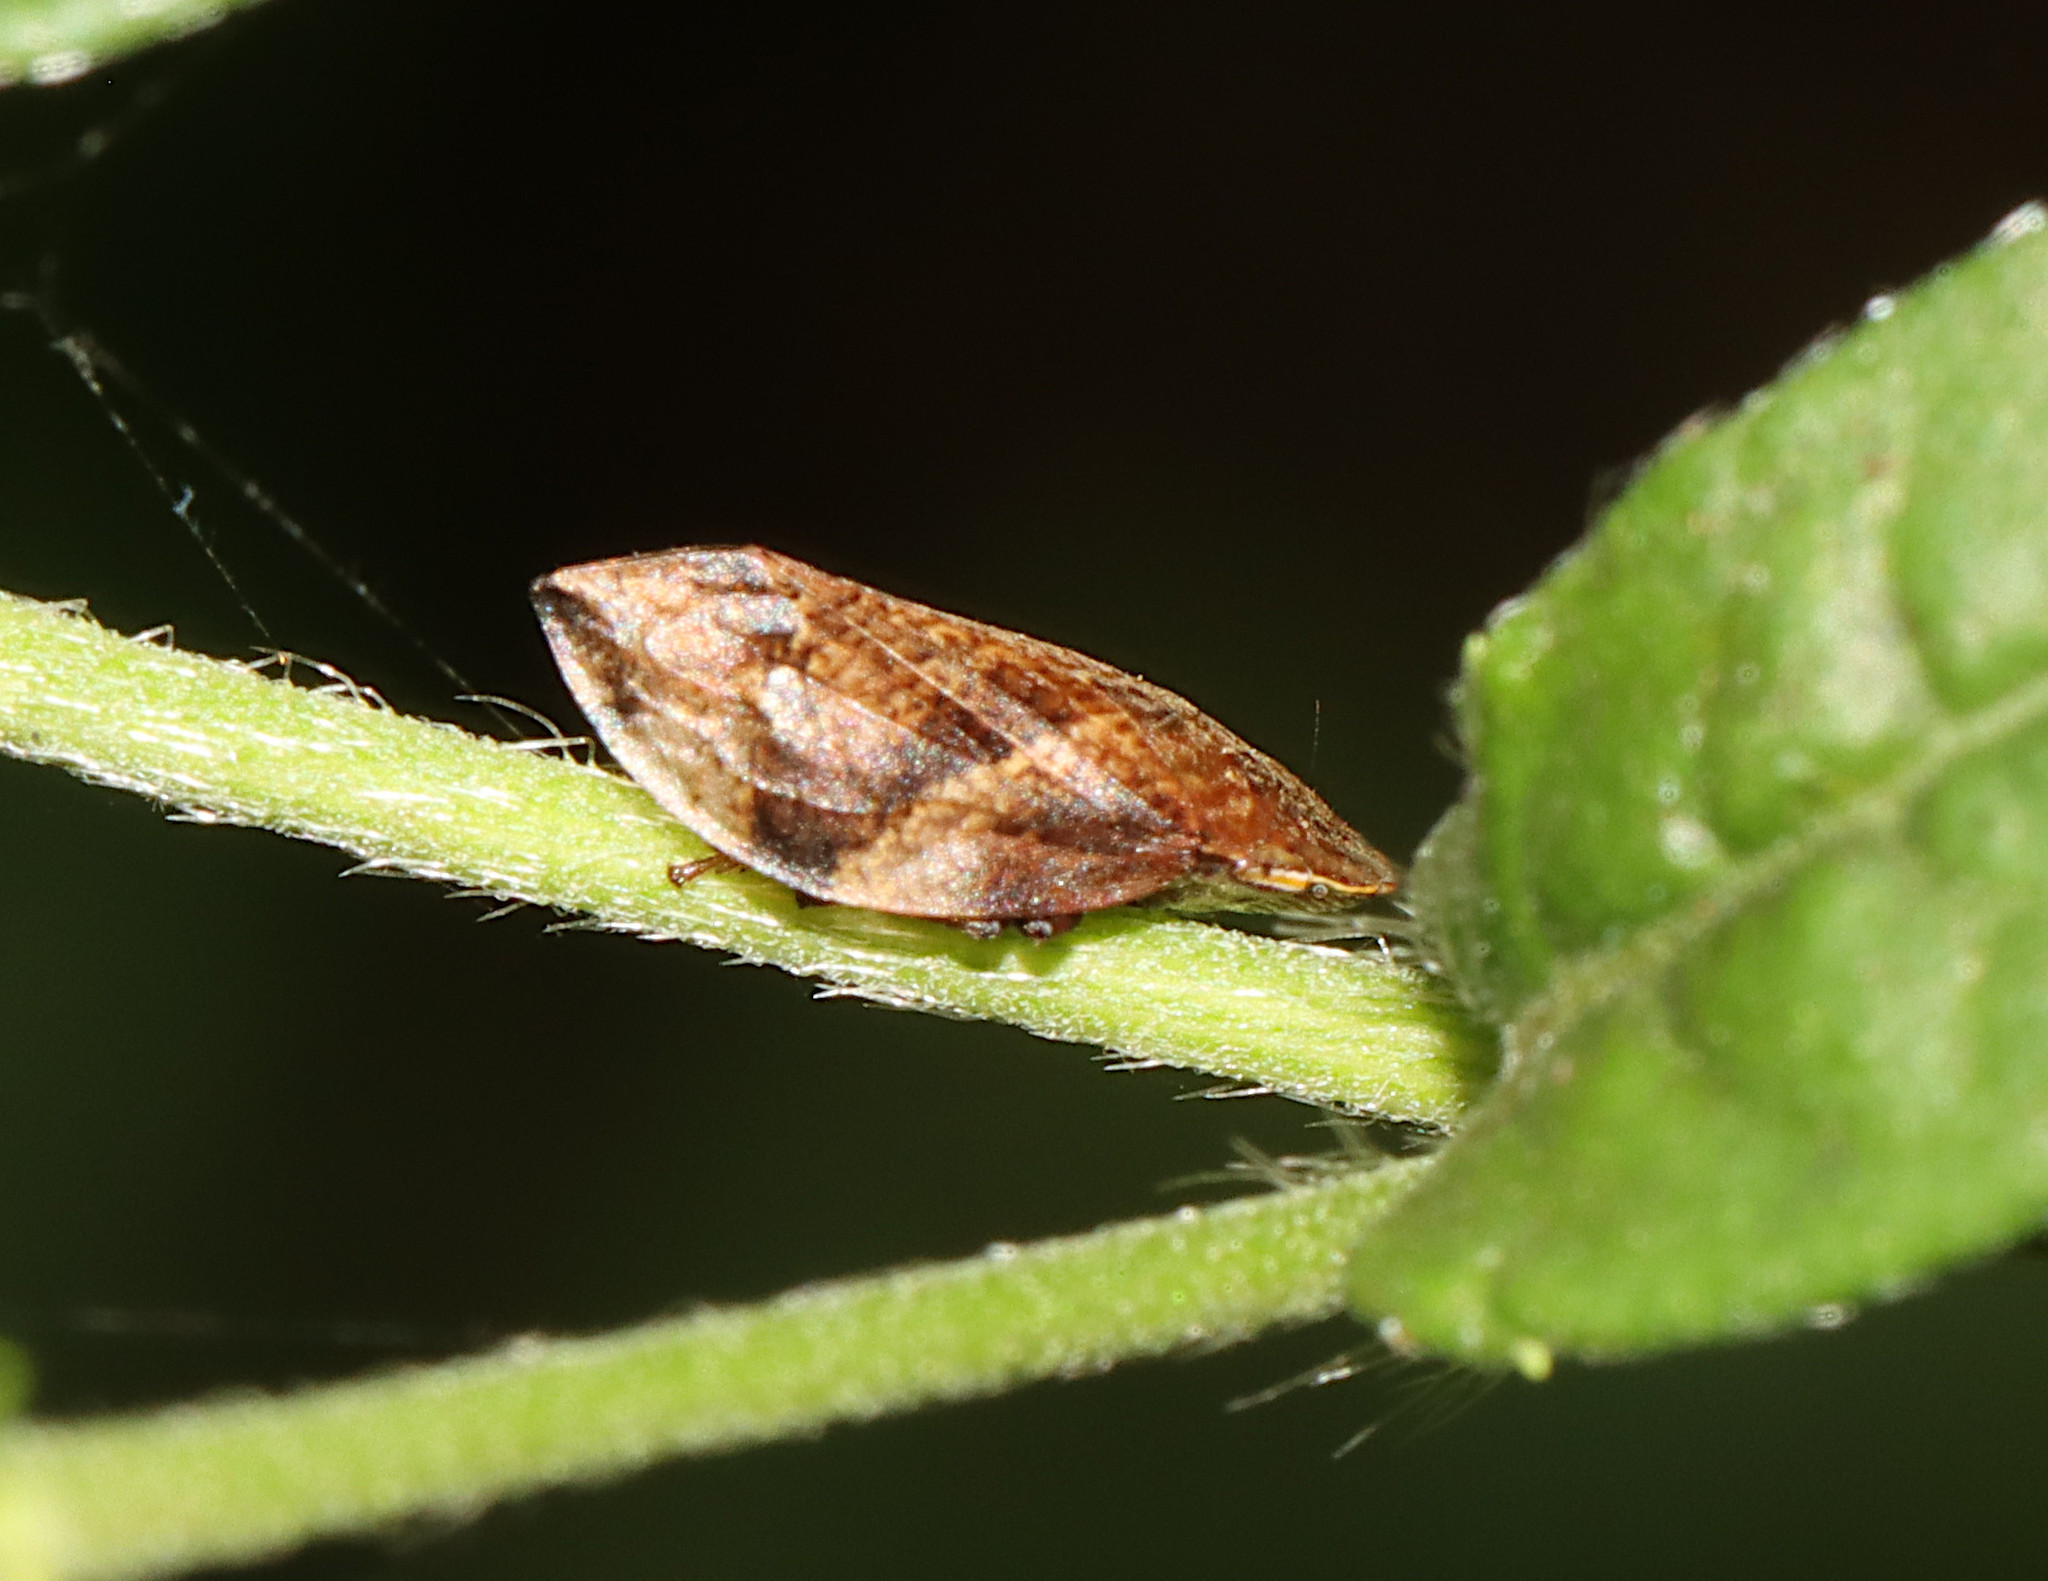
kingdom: Animalia
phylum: Arthropoda
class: Insecta
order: Hemiptera
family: Aphrophoridae
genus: Lepyronia
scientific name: Lepyronia quadrangularis
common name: Diamond-backed spittlebug
